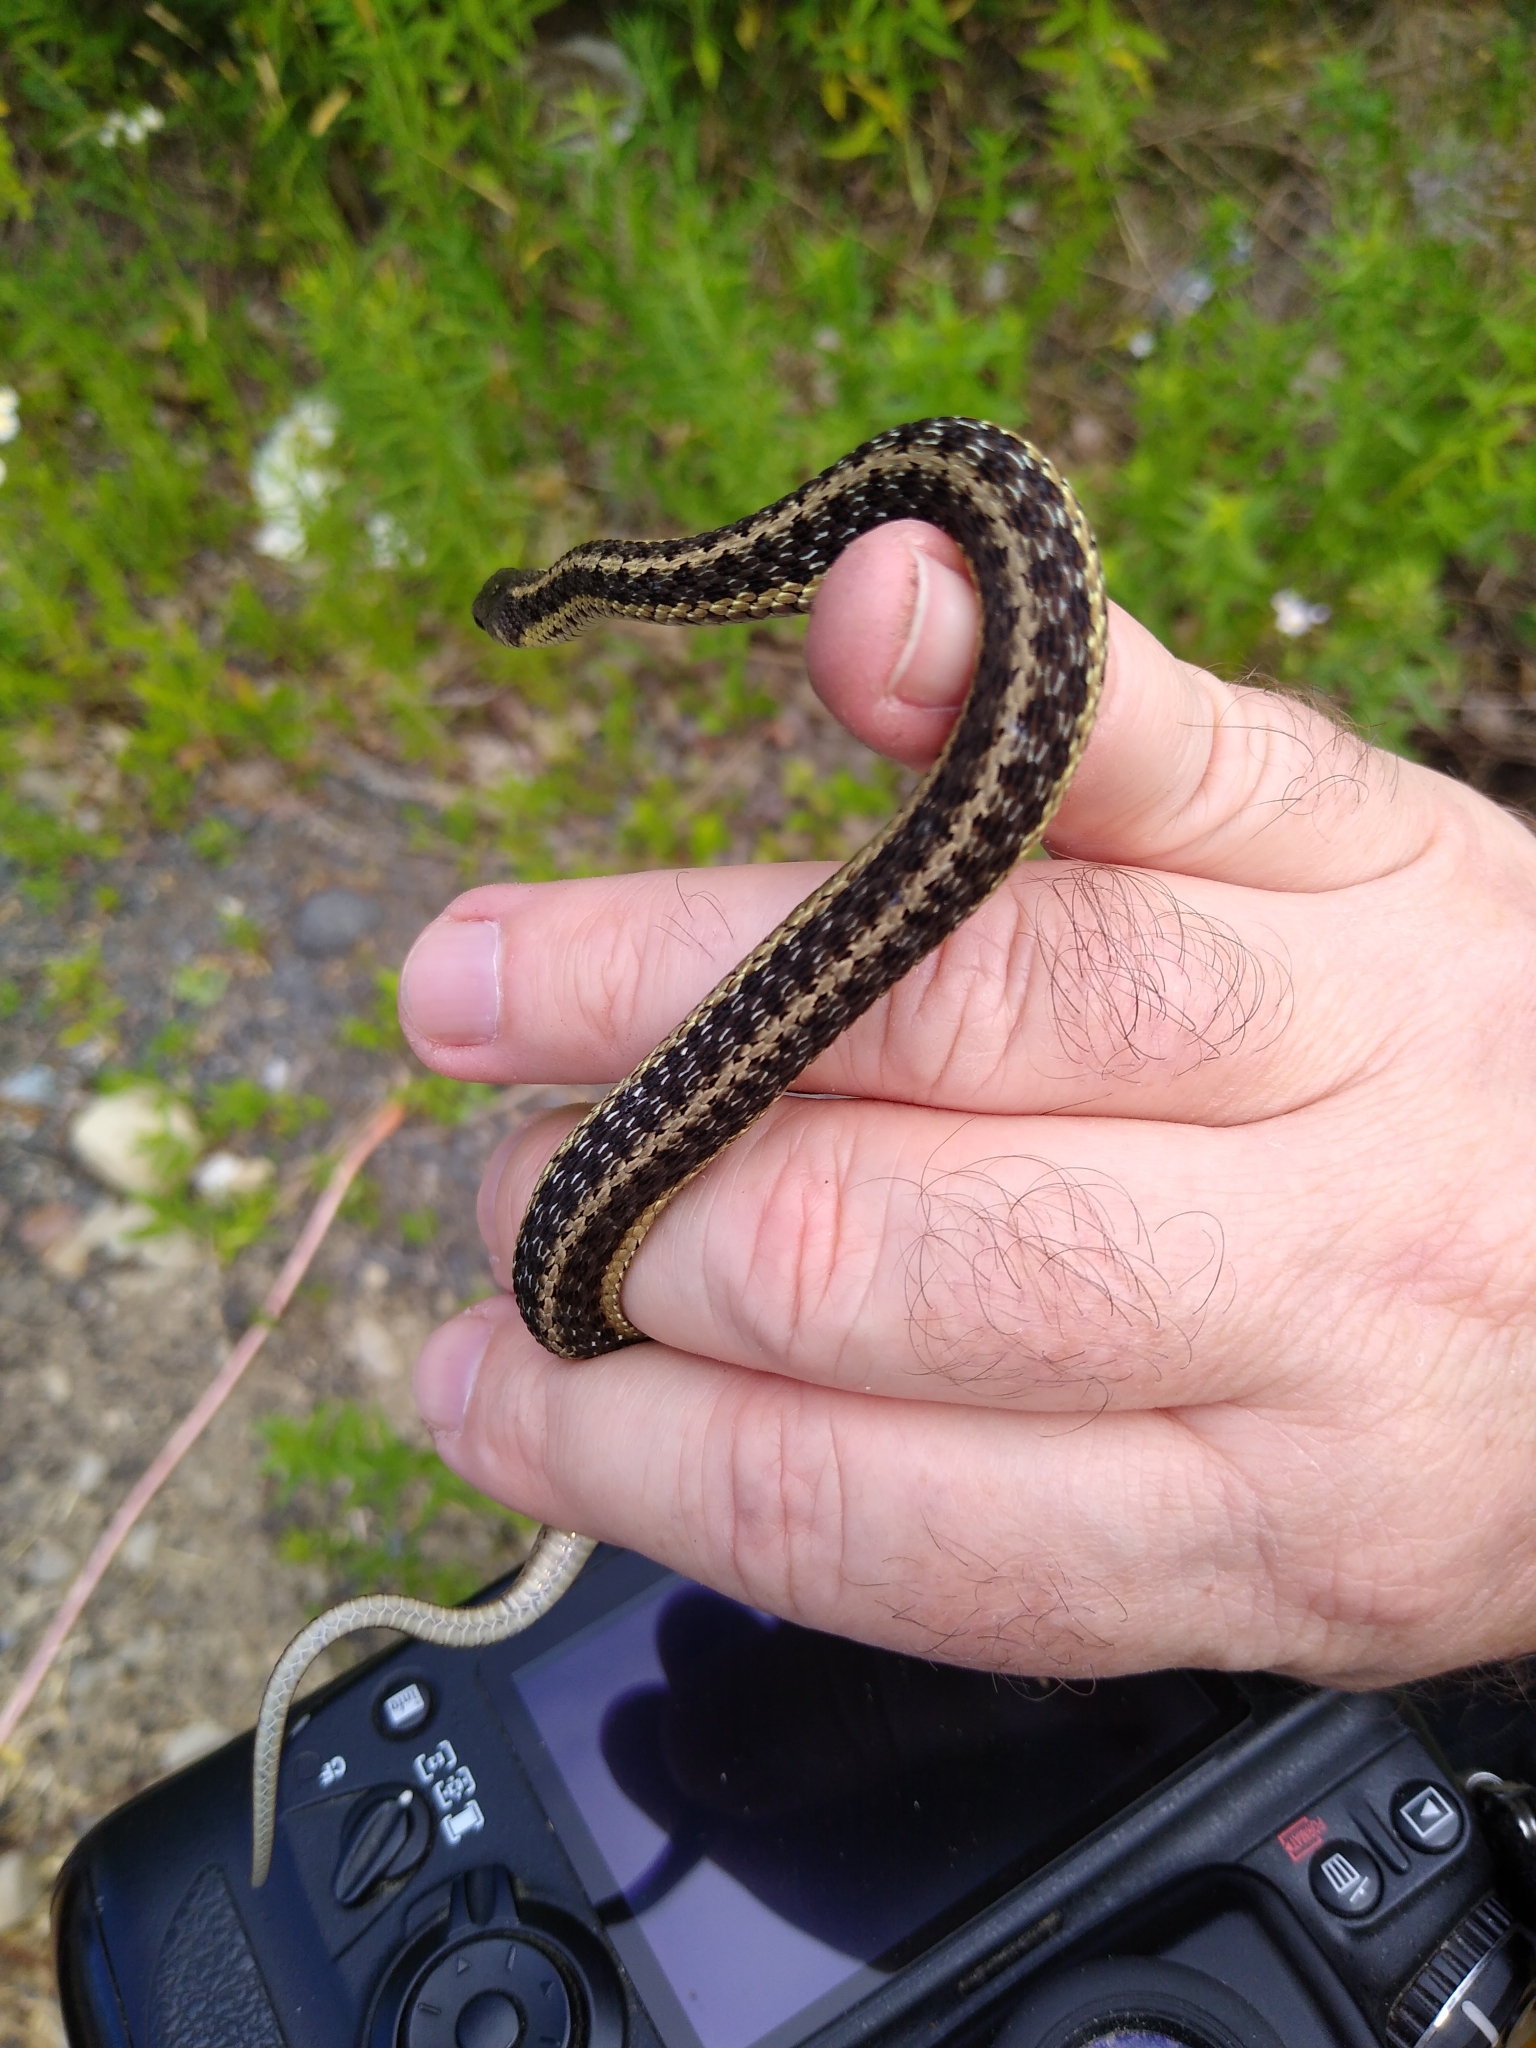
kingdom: Animalia
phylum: Chordata
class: Squamata
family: Colubridae
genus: Thamnophis
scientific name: Thamnophis sirtalis
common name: Common garter snake
